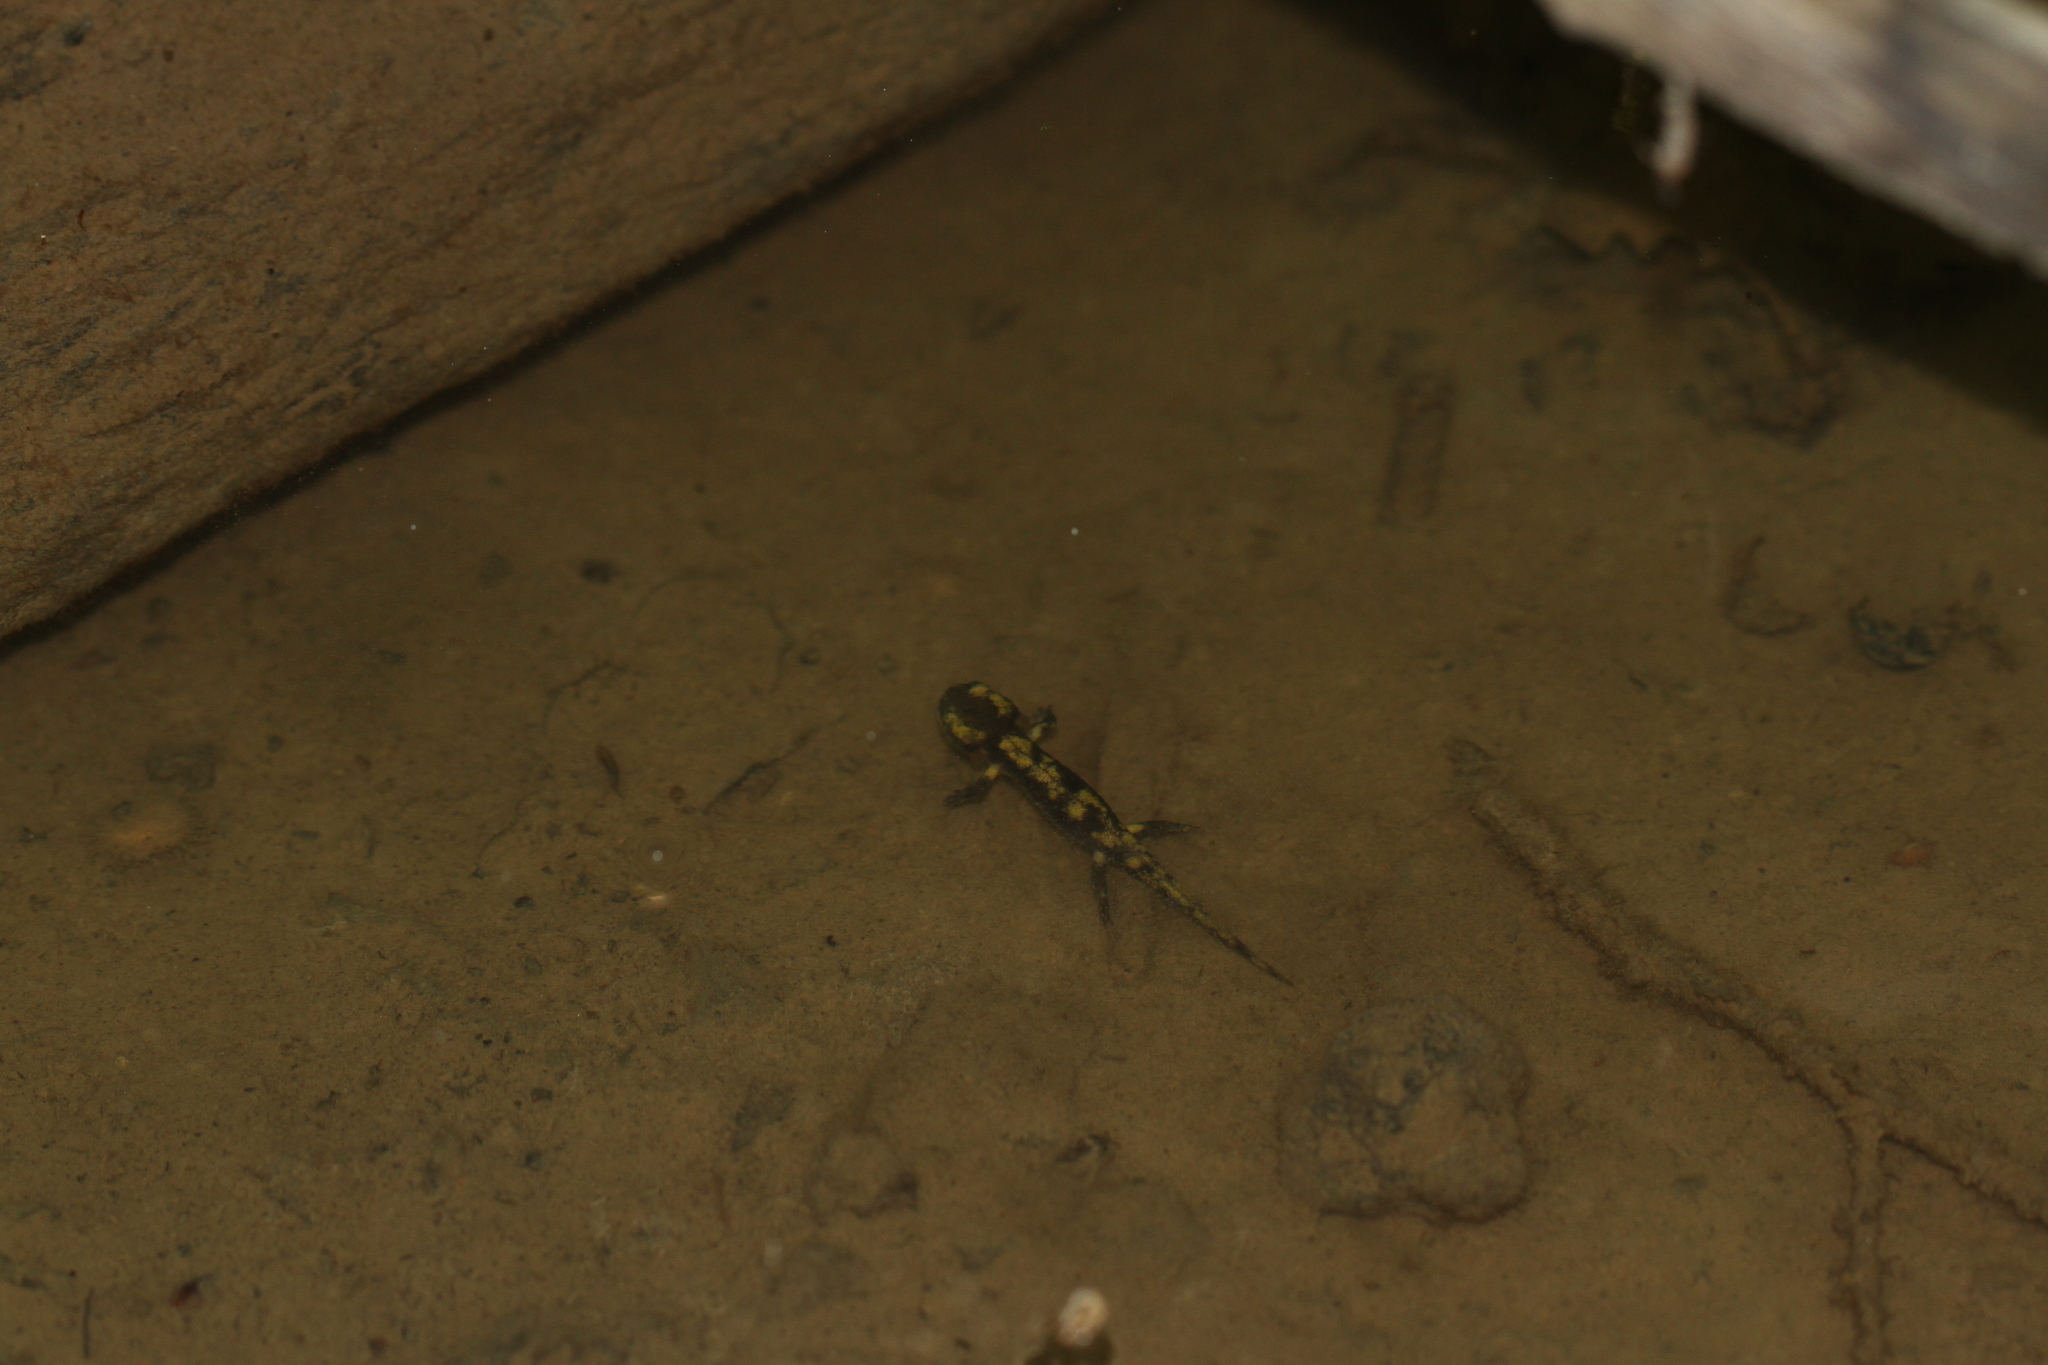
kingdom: Animalia
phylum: Chordata
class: Amphibia
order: Caudata
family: Salamandridae
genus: Salamandra
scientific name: Salamandra salamandra
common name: Fire salamander
